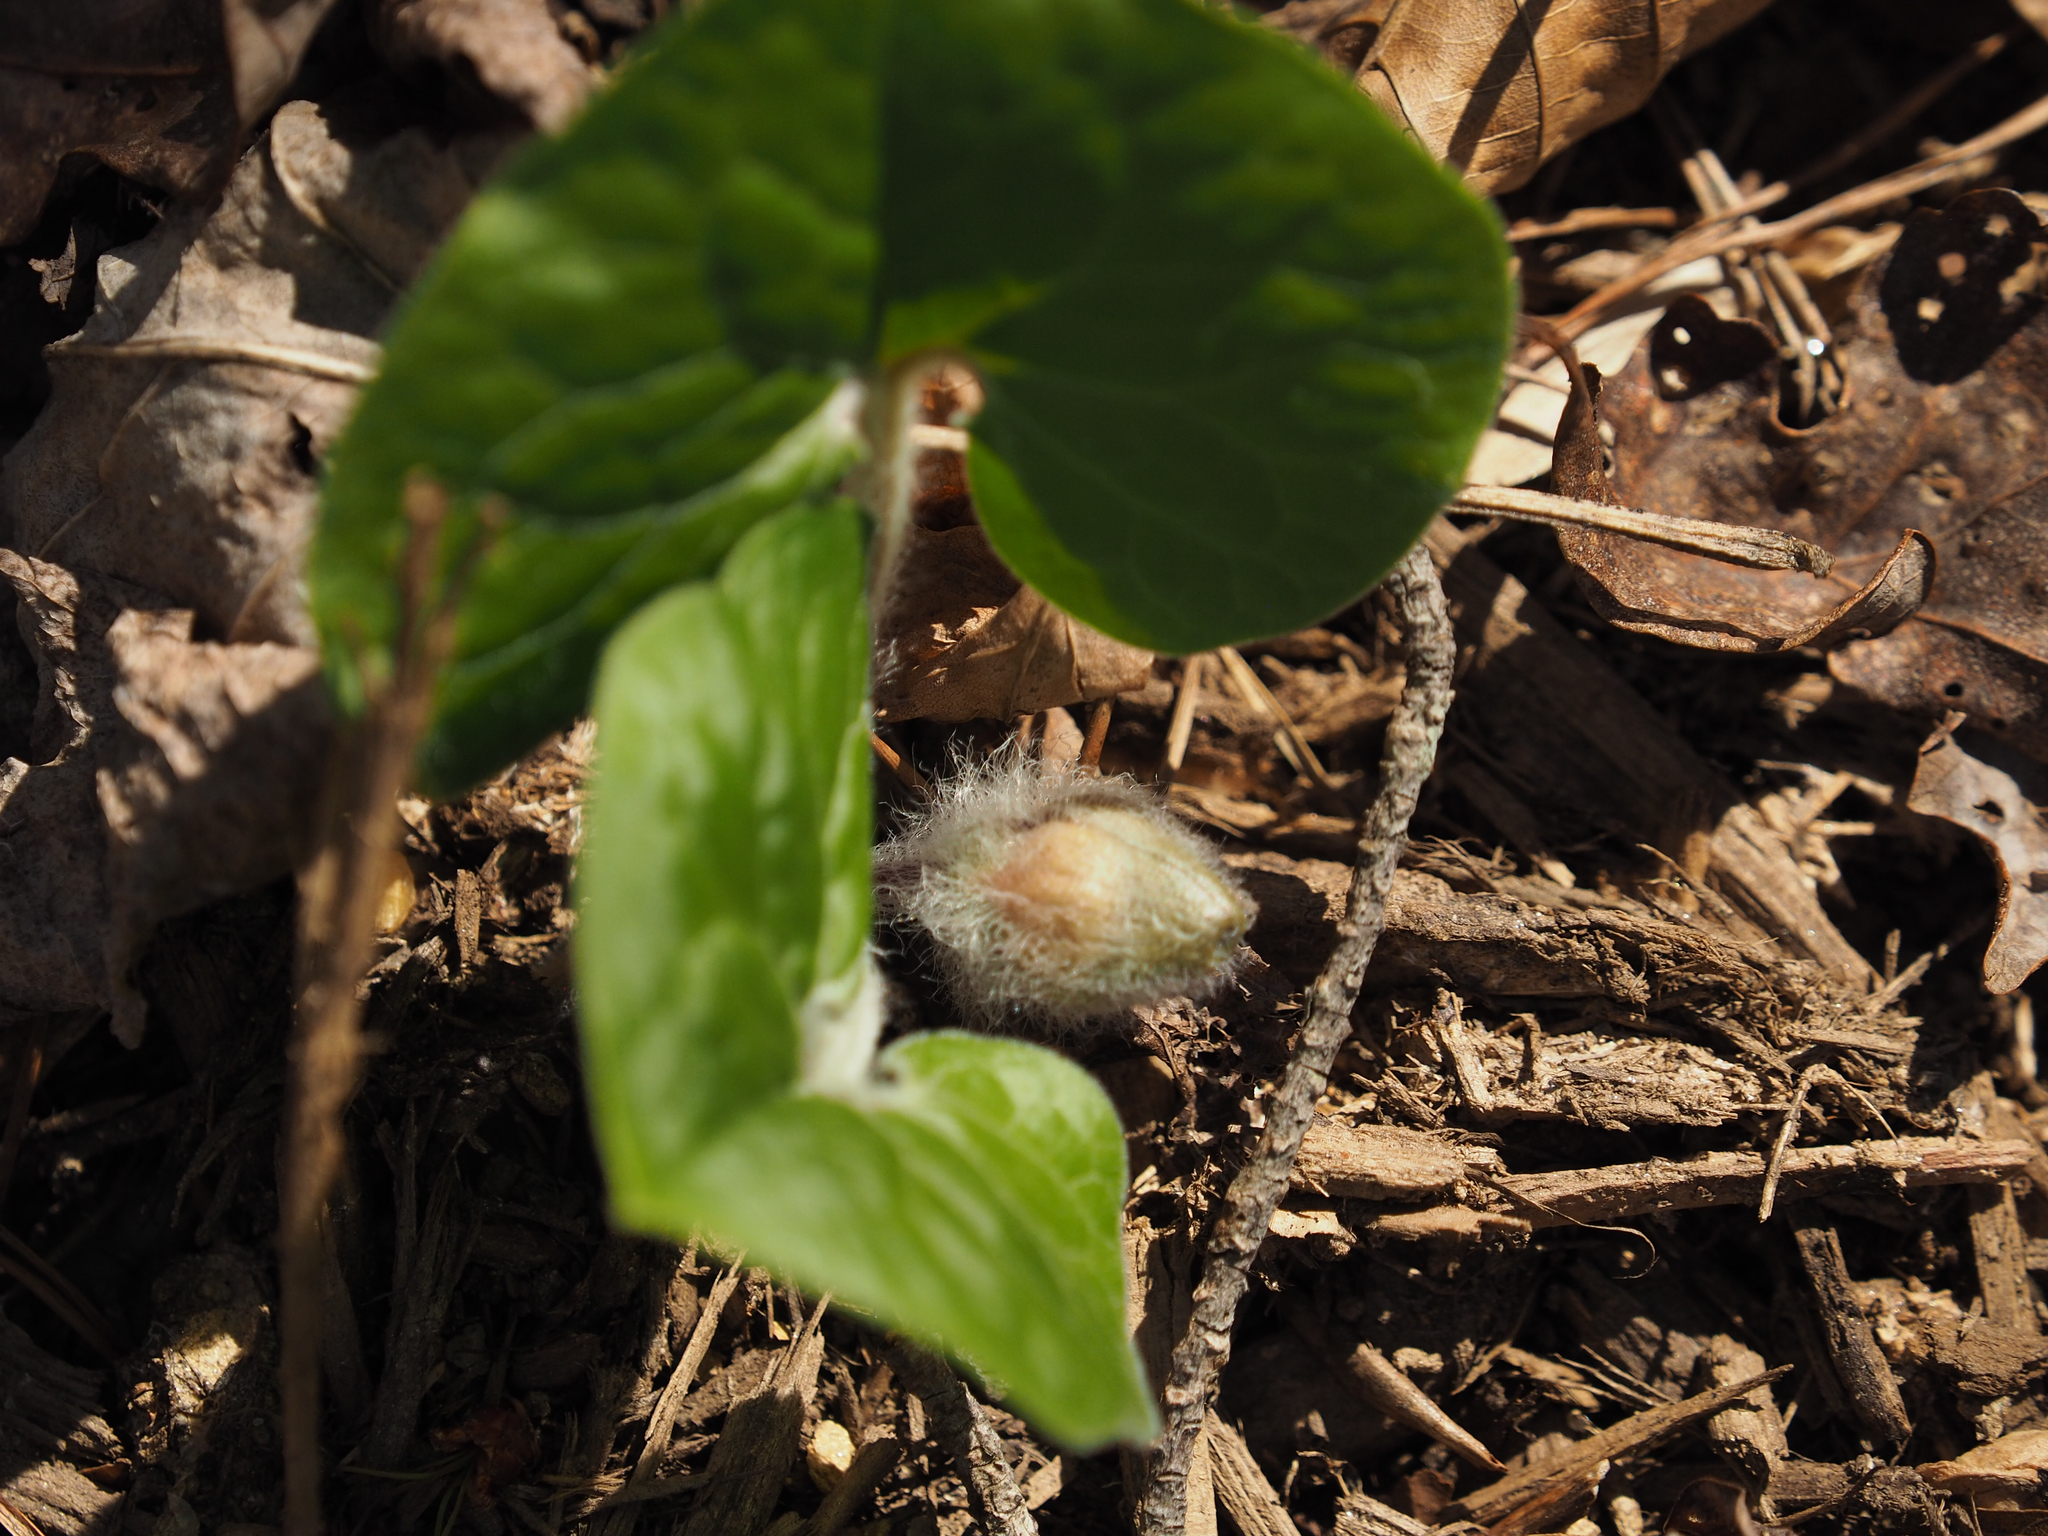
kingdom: Plantae
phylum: Tracheophyta
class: Magnoliopsida
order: Piperales
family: Aristolochiaceae
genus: Asarum
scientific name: Asarum canadense
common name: Wild ginger
